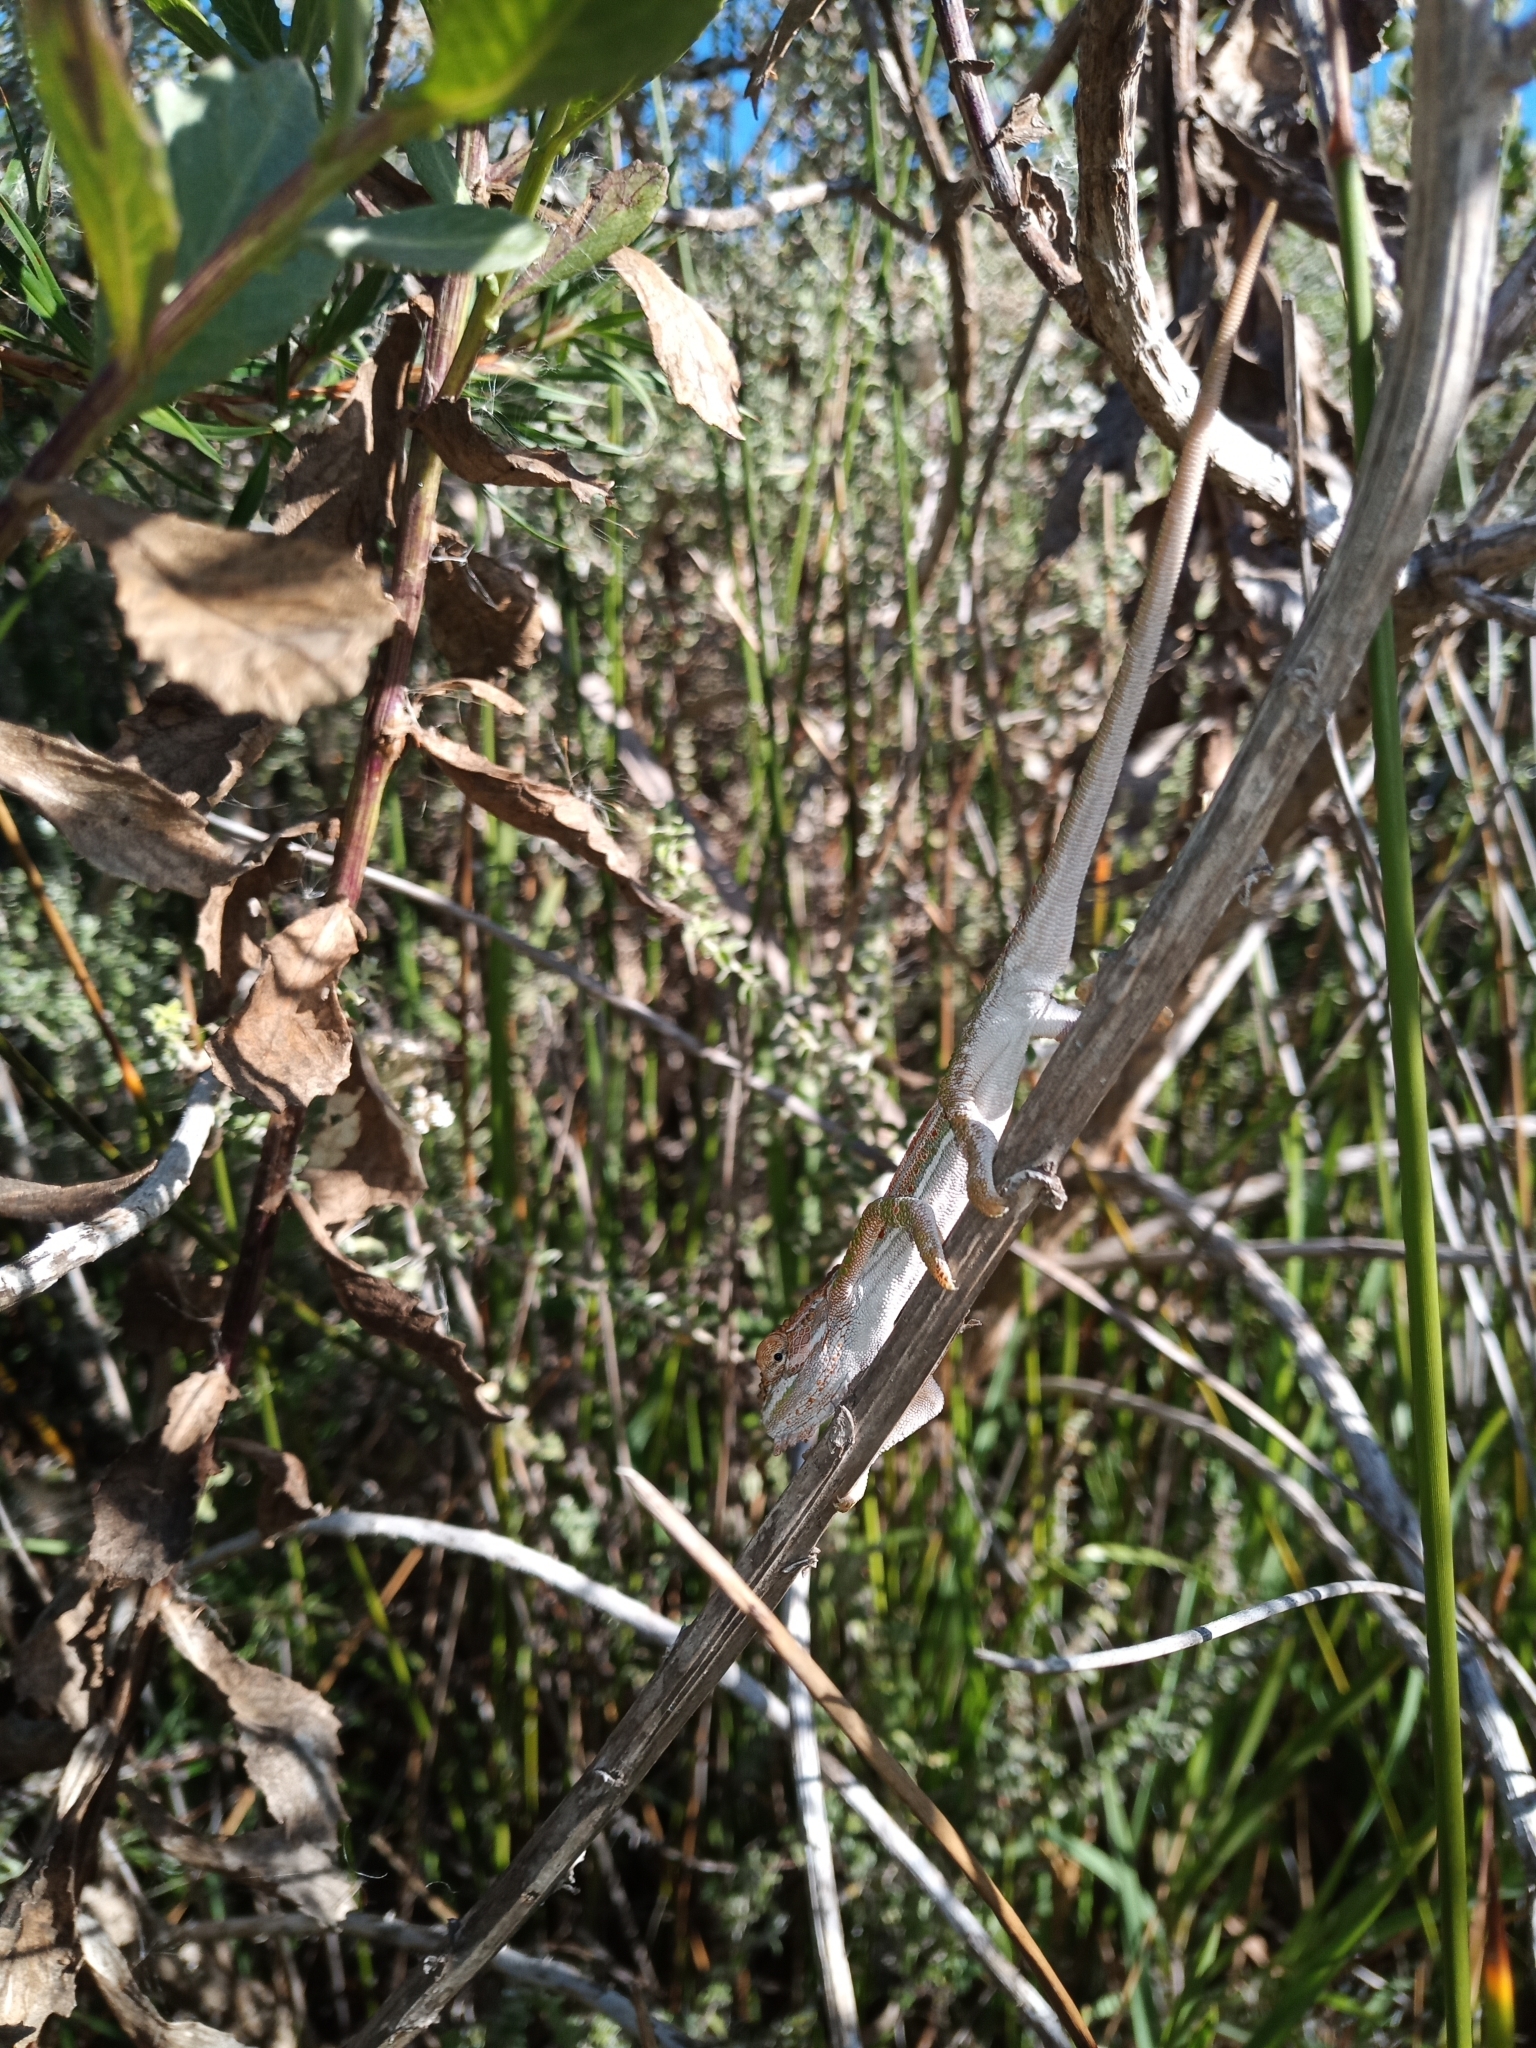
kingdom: Animalia
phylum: Chordata
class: Squamata
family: Chamaeleonidae
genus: Bradypodion
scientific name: Bradypodion pumilum
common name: Cape dwarf chameleon
